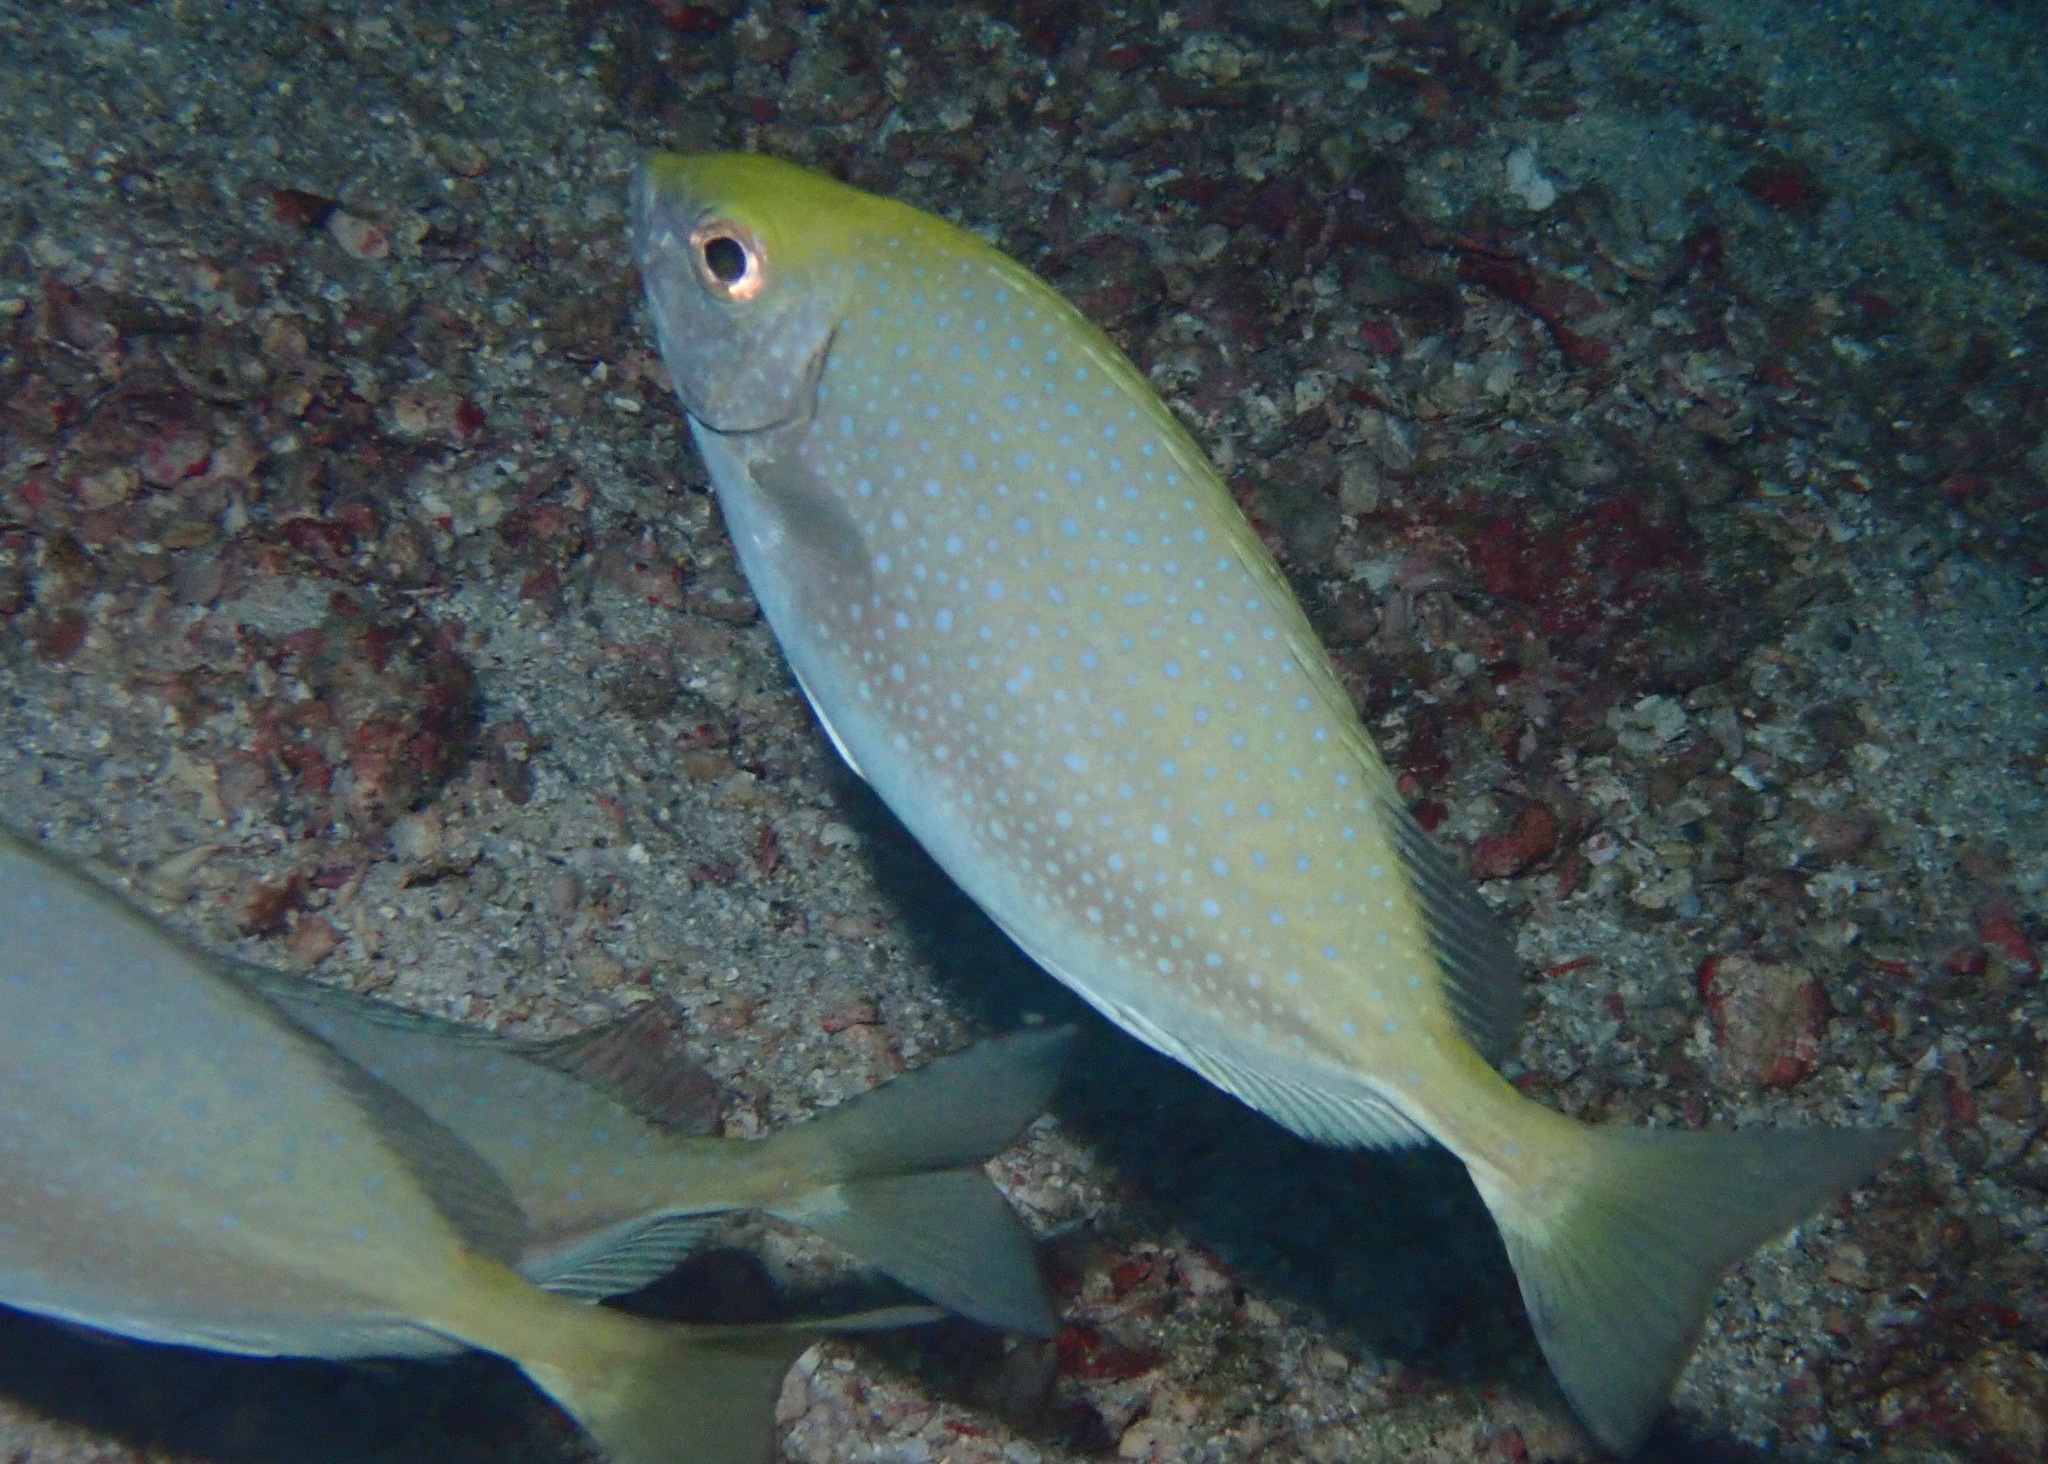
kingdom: Animalia
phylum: Chordata
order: Perciformes
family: Siganidae
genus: Siganus
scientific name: Siganus sutor
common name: Shoemaker spinefoot
